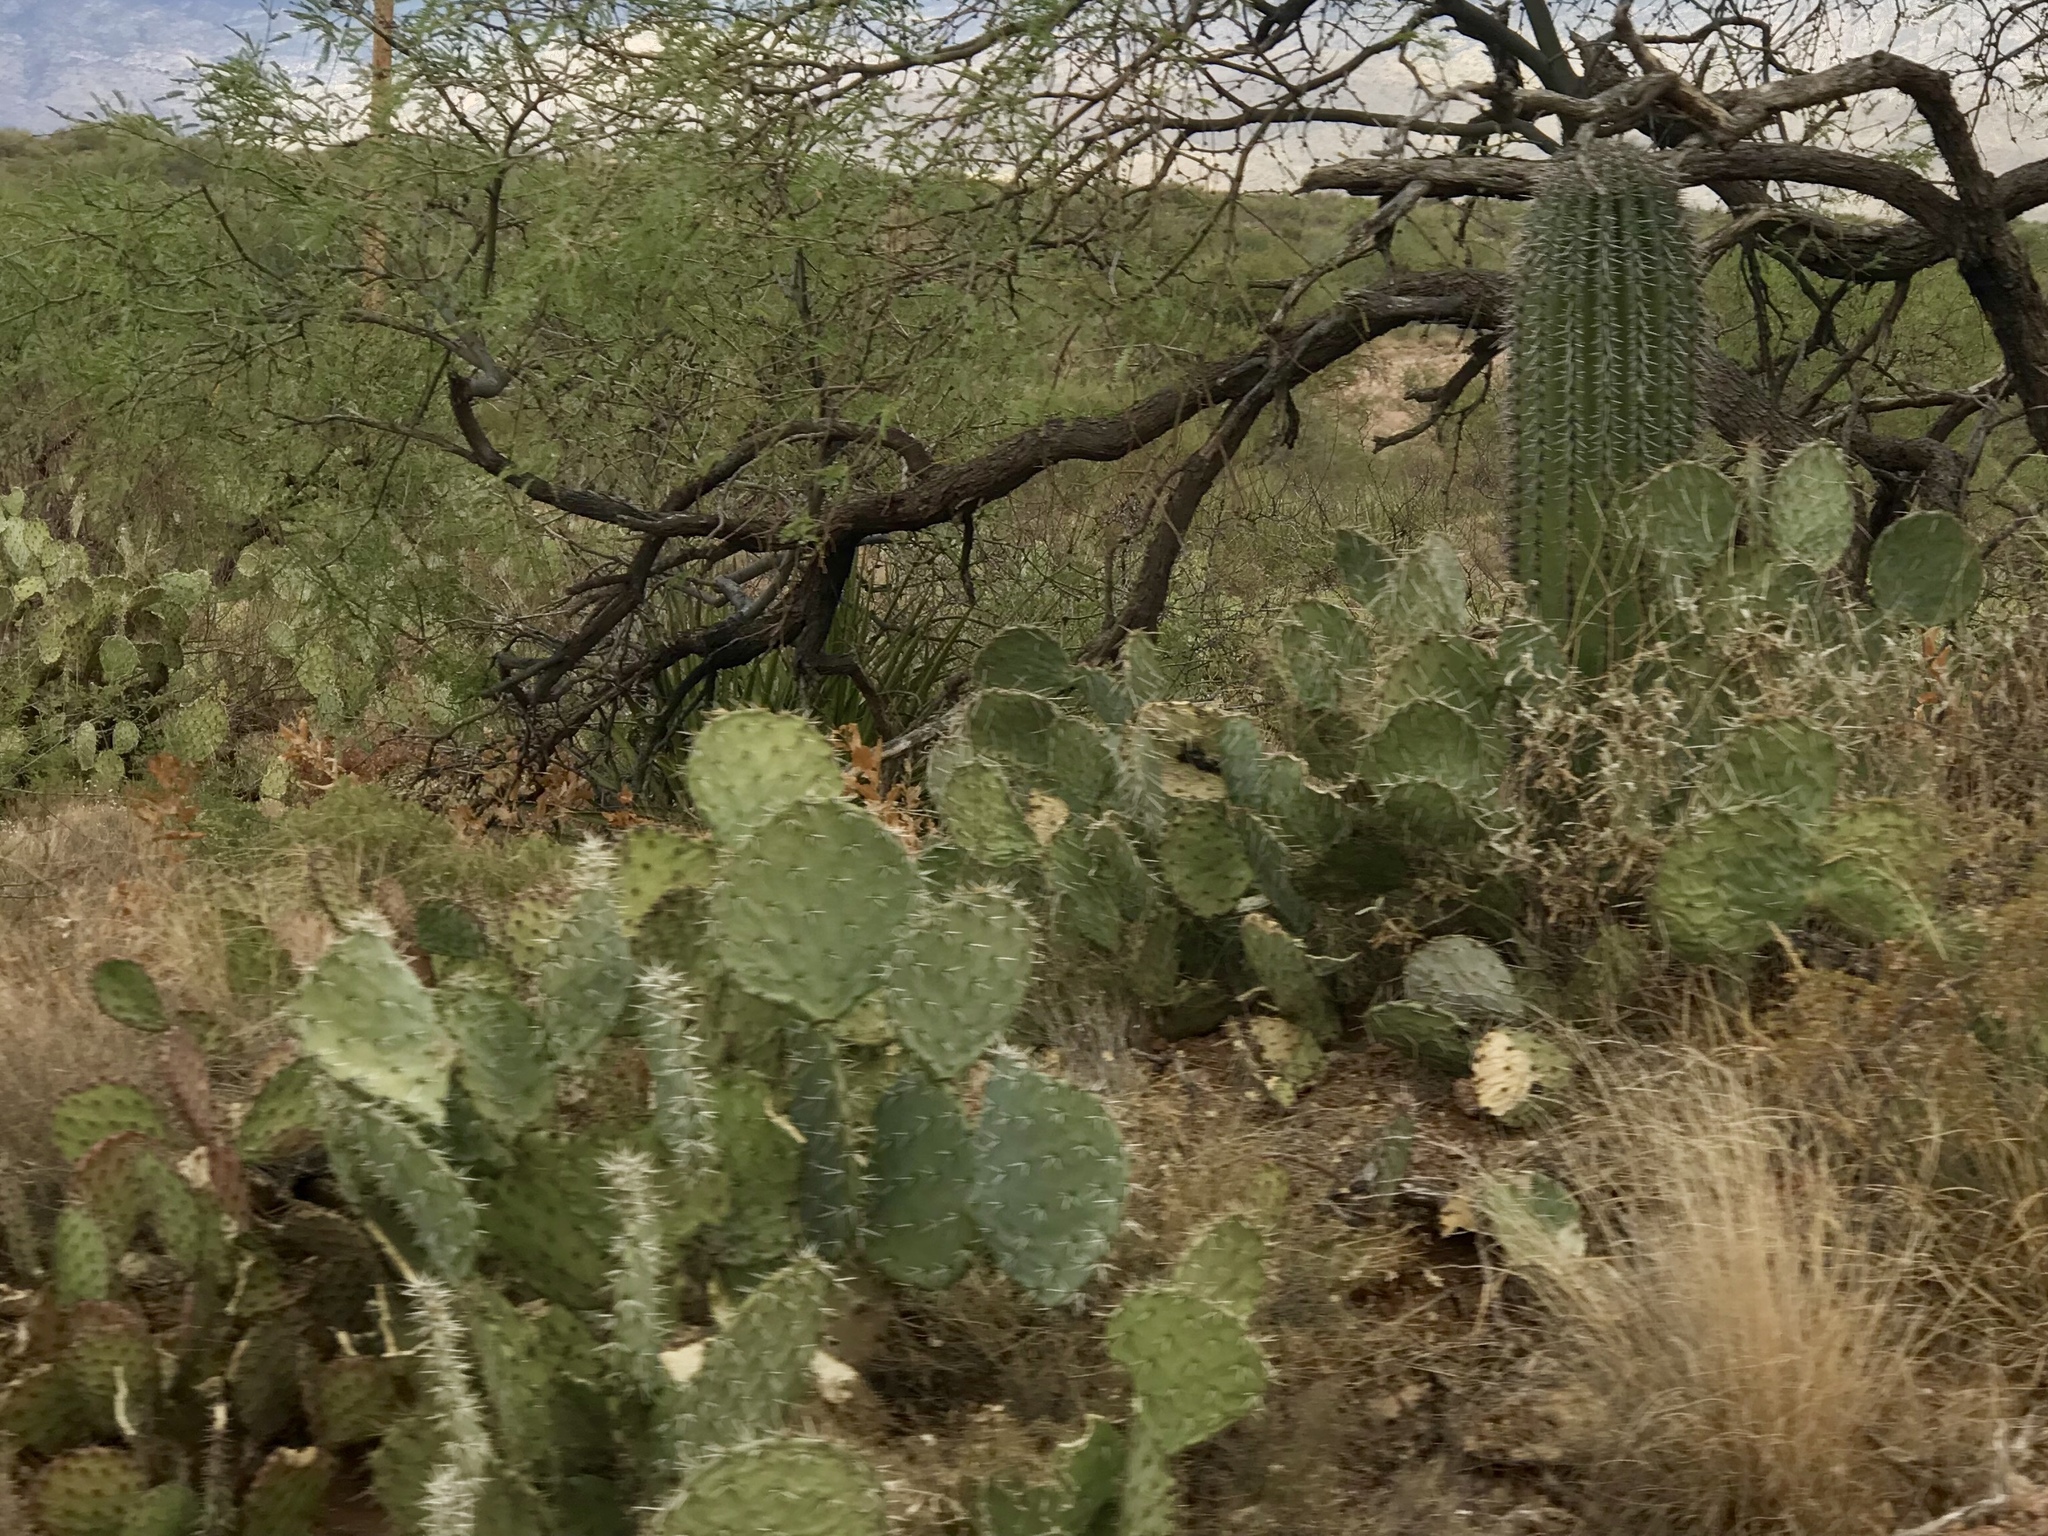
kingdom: Plantae
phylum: Tracheophyta
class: Magnoliopsida
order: Caryophyllales
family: Cactaceae
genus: Opuntia
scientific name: Opuntia engelmannii
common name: Cactus-apple
